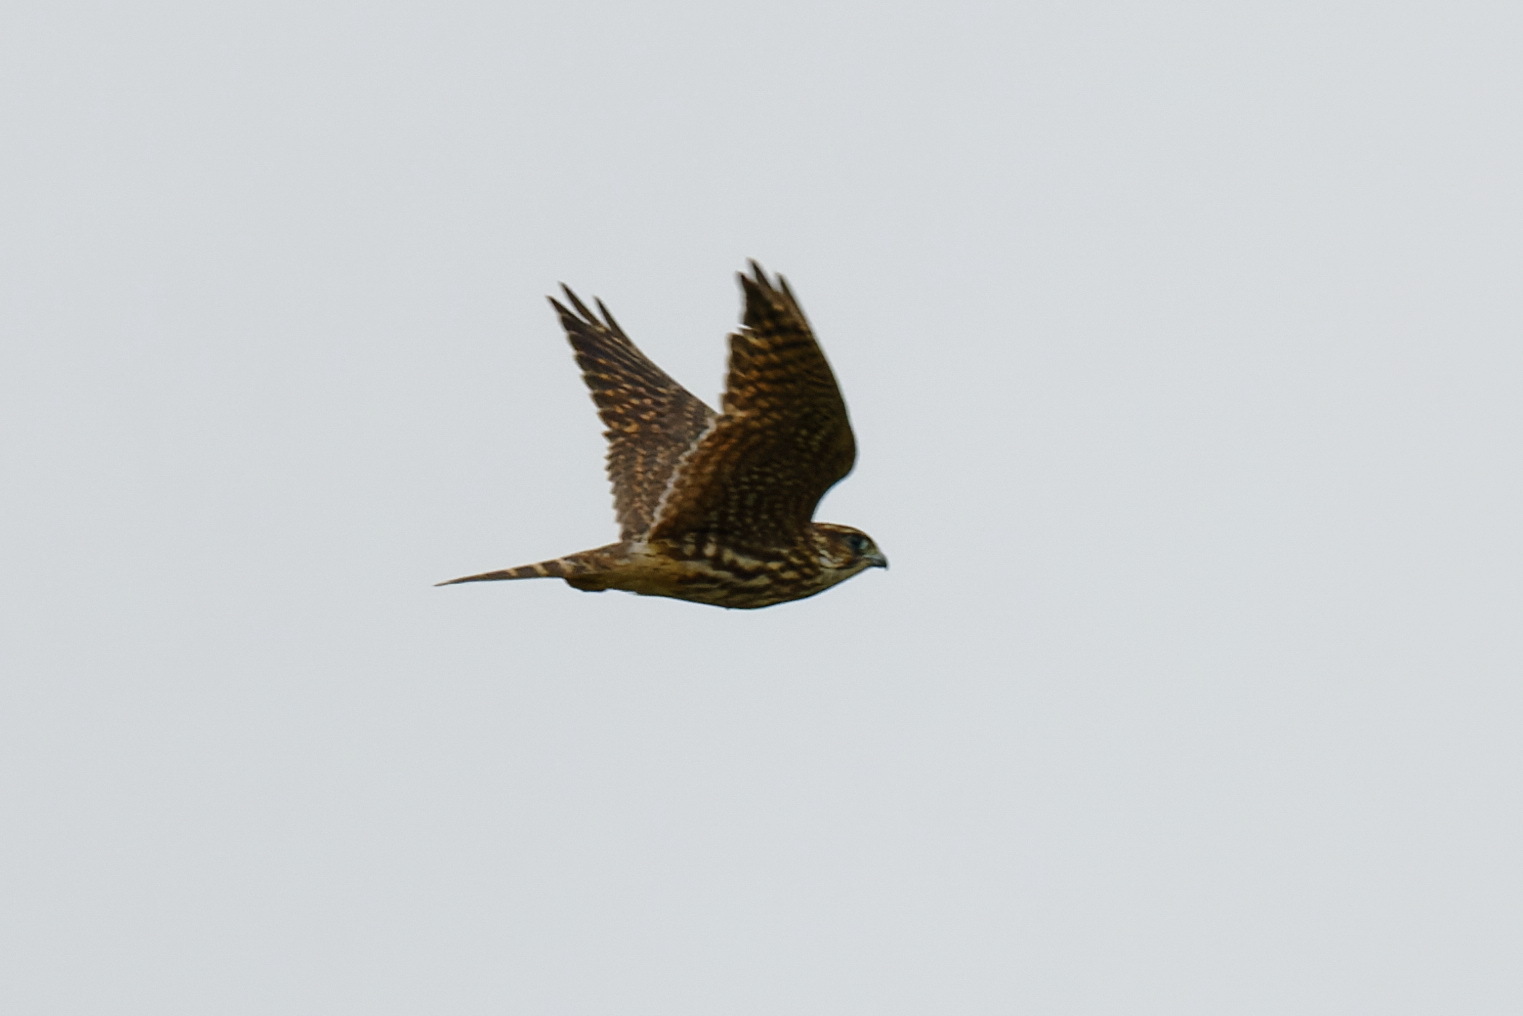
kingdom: Animalia
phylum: Chordata
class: Aves
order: Falconiformes
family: Falconidae
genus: Falco
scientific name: Falco columbarius
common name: Merlin
